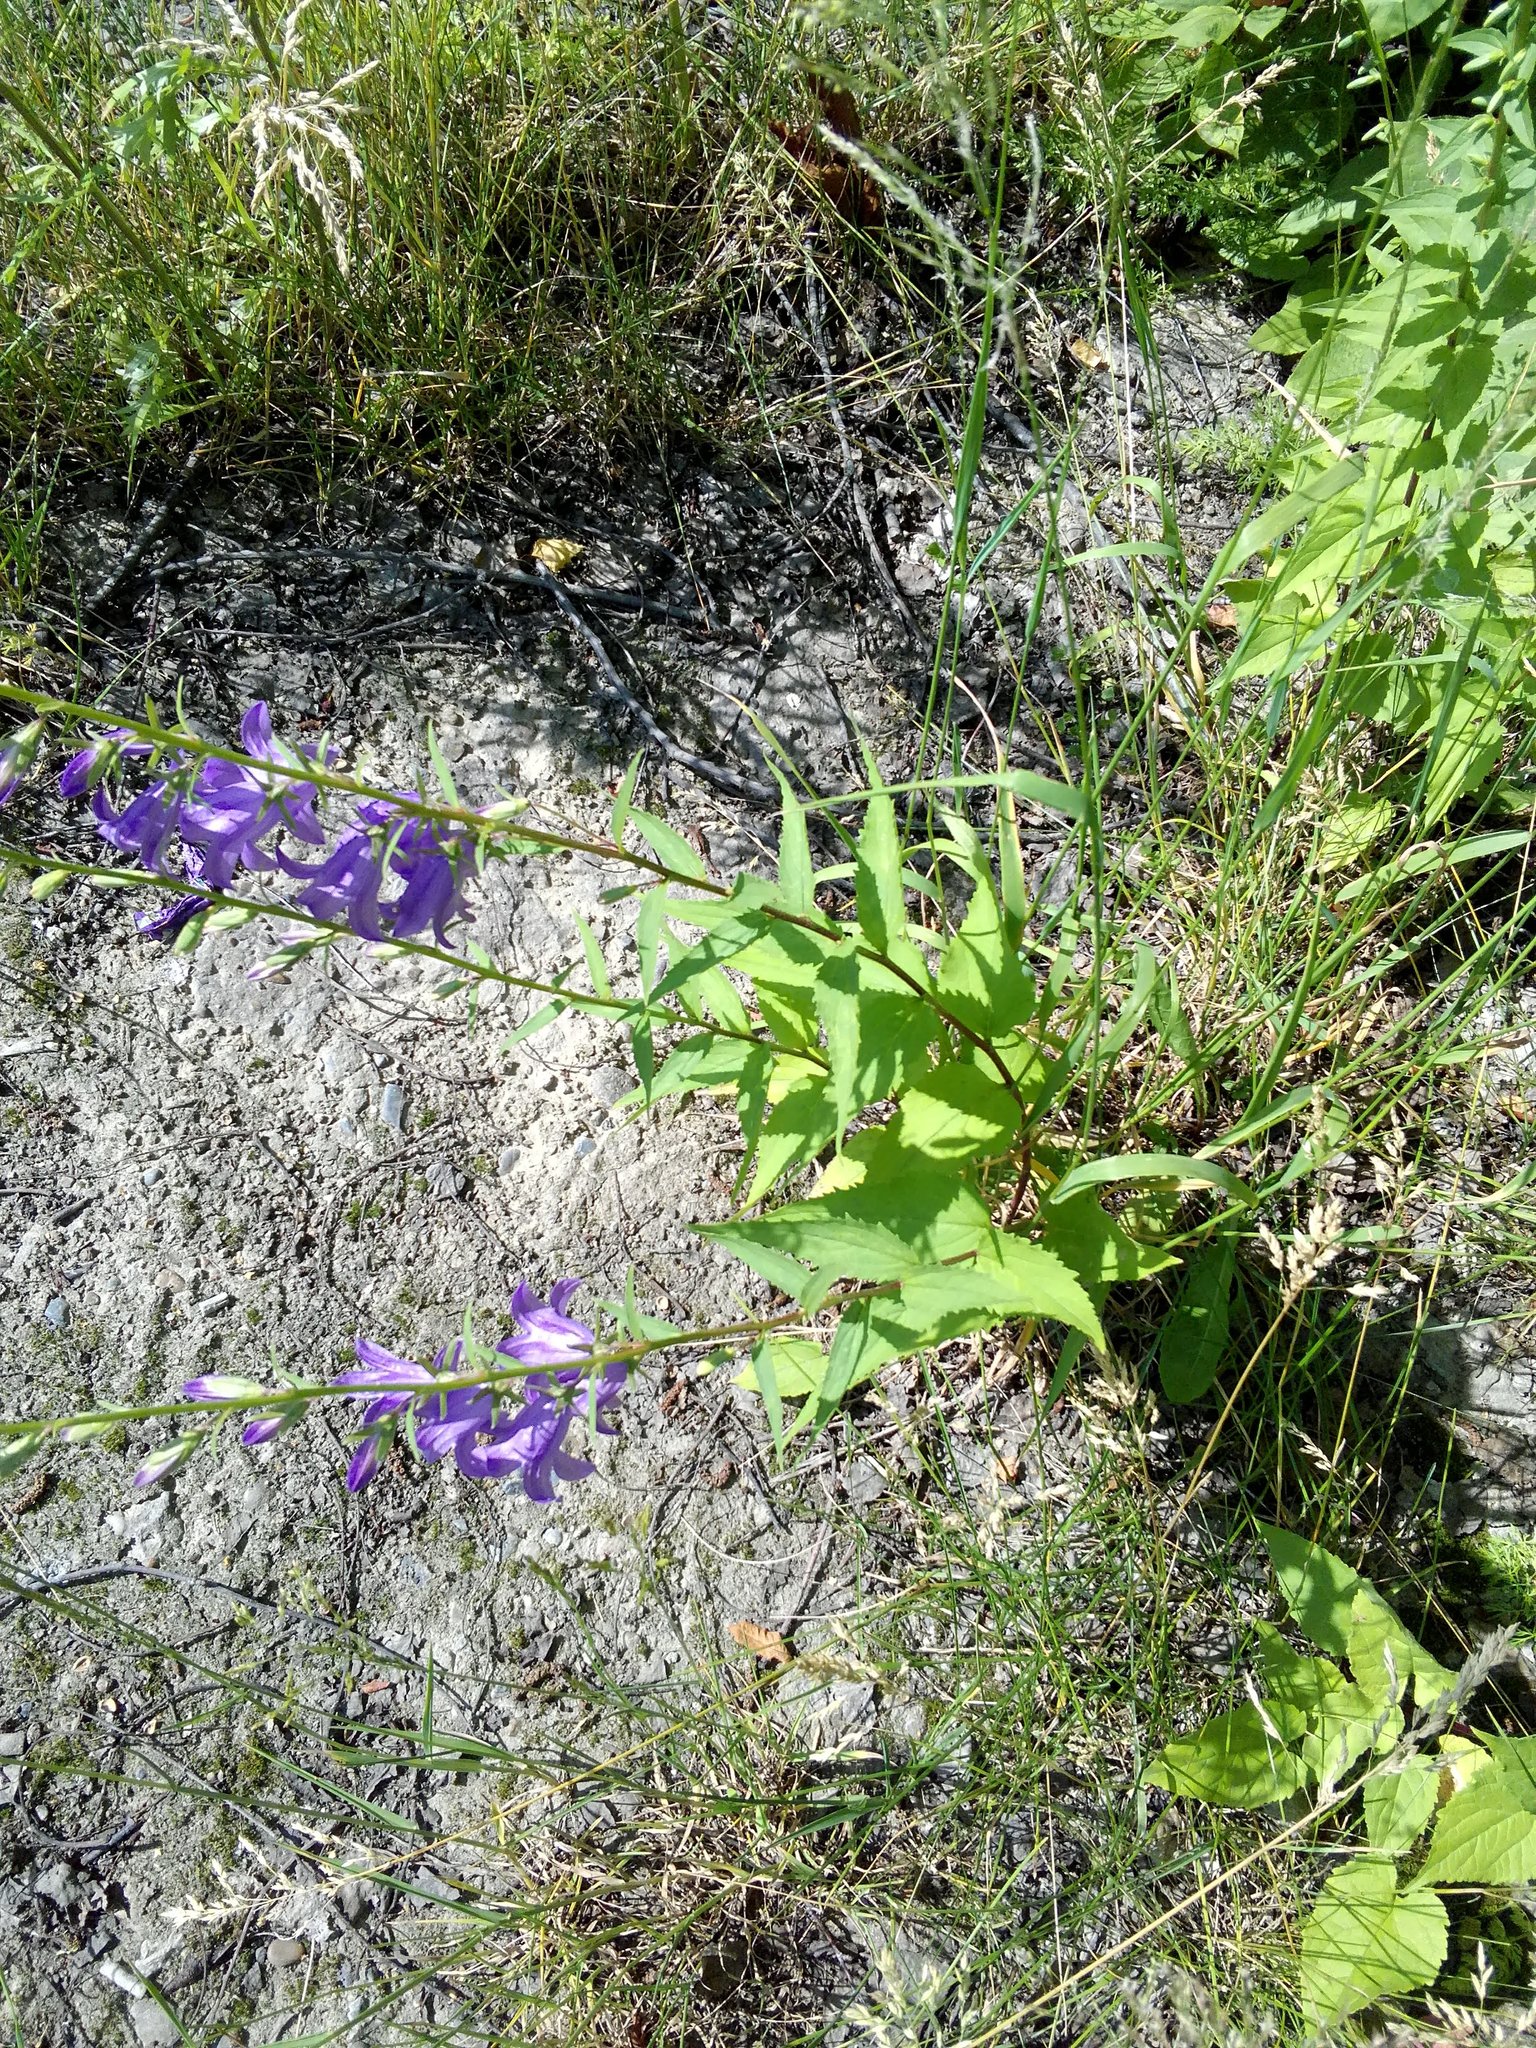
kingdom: Plantae
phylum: Tracheophyta
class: Magnoliopsida
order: Asterales
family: Campanulaceae
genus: Campanula
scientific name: Campanula rapunculoides
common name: Creeping bellflower
